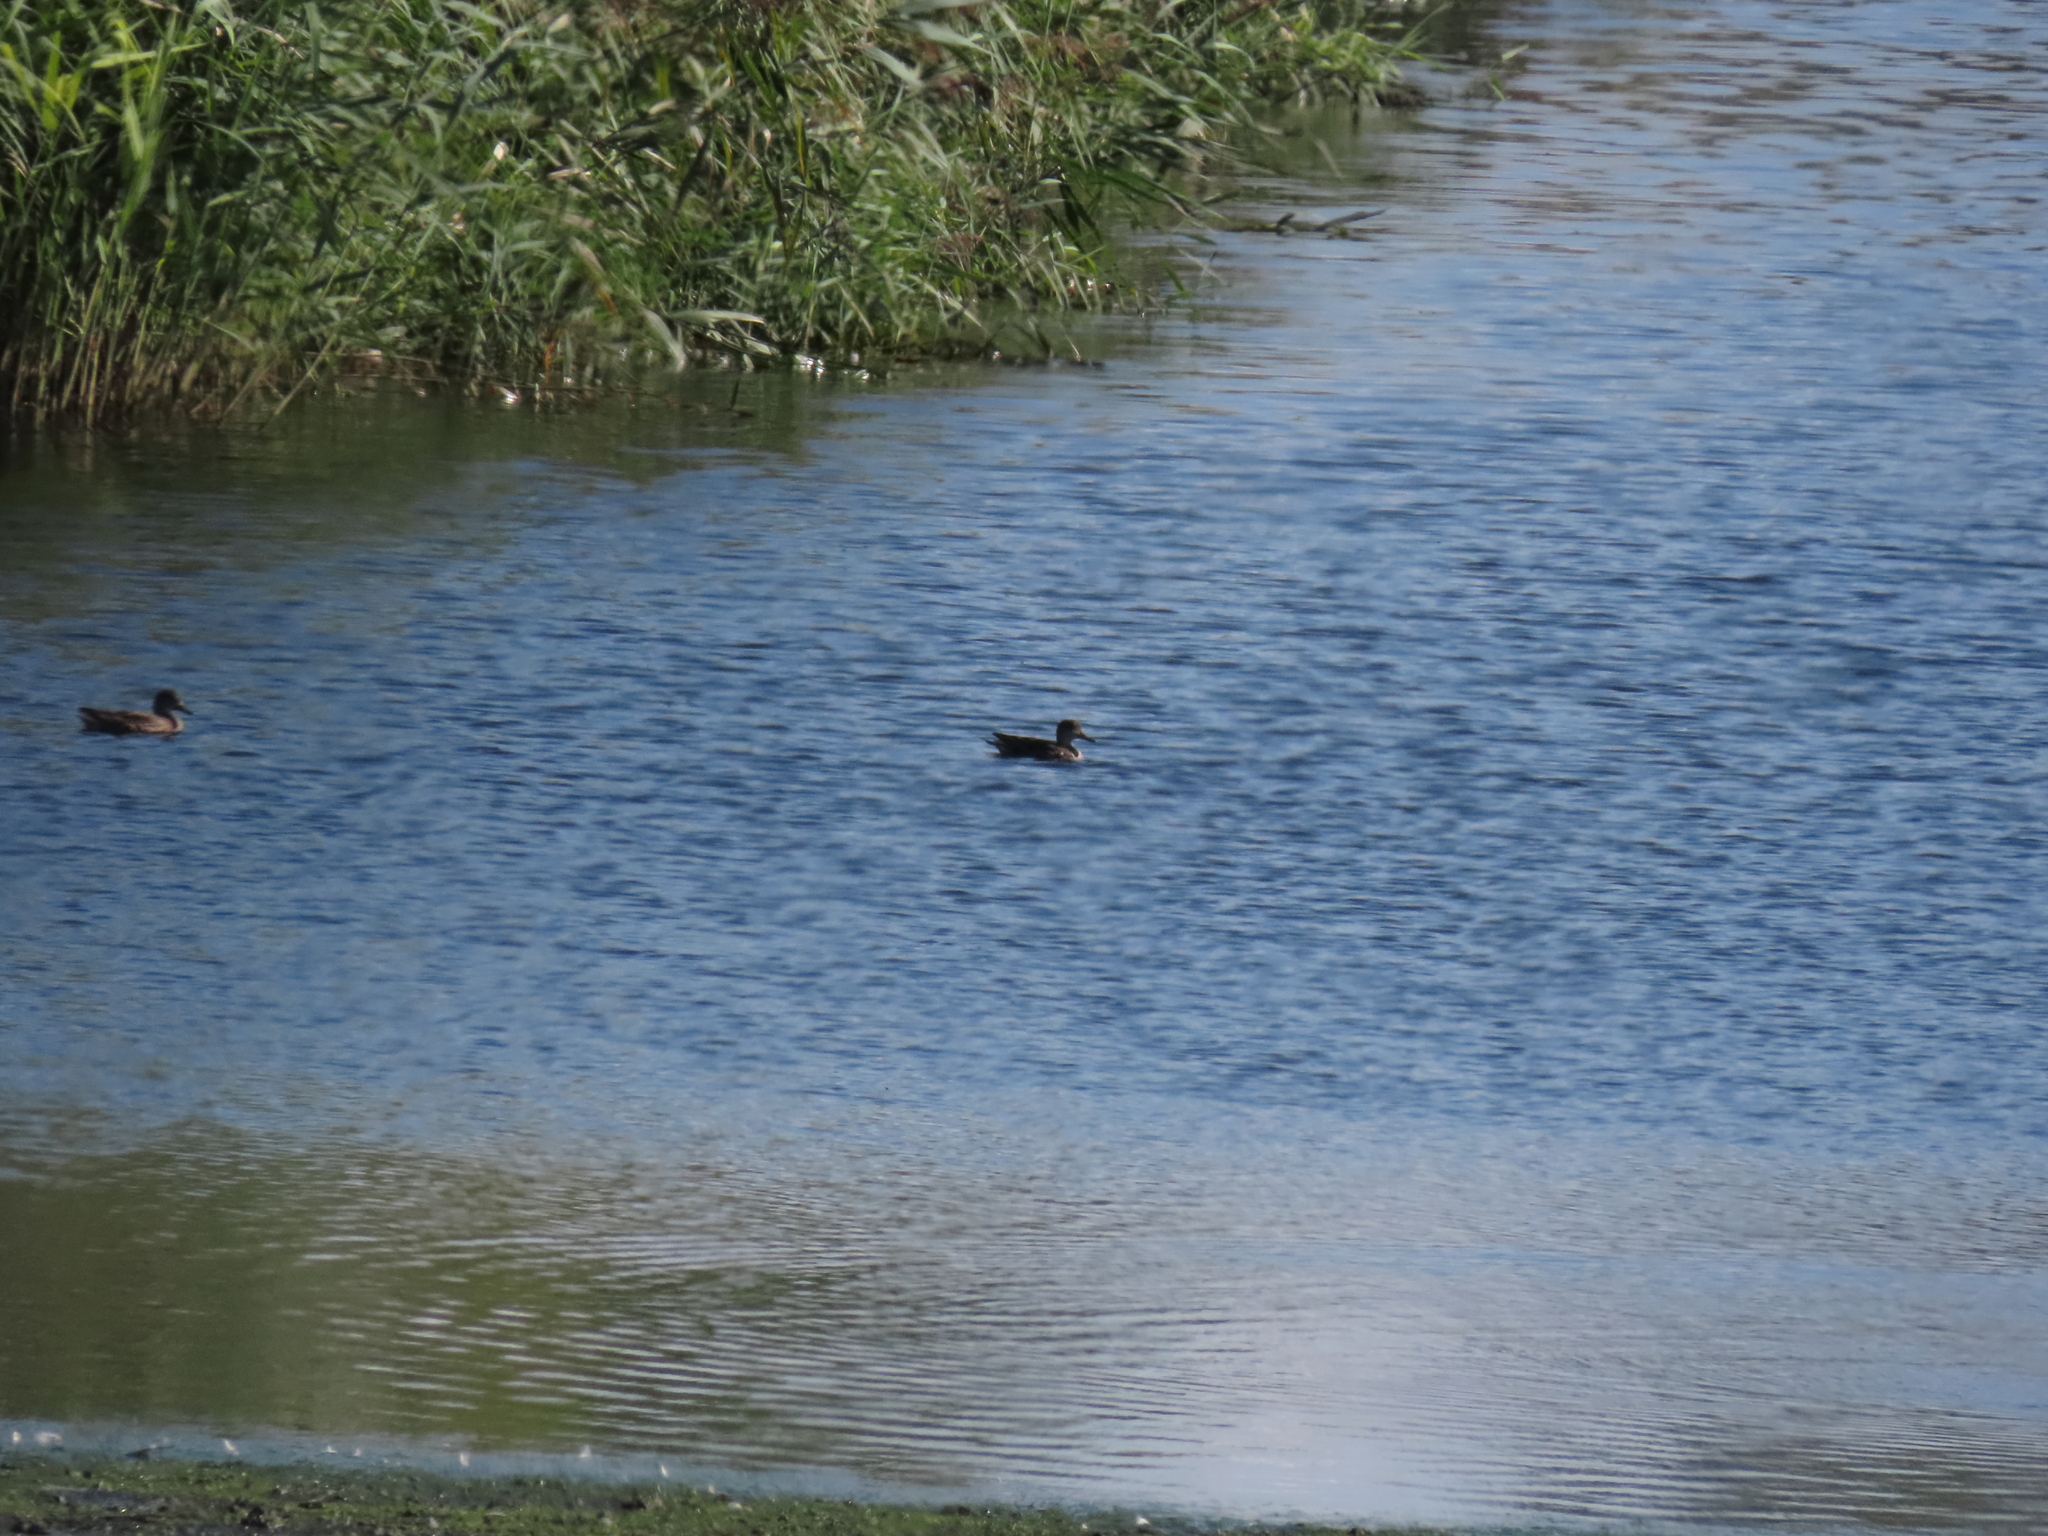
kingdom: Animalia
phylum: Chordata
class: Aves
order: Anseriformes
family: Anatidae
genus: Anas
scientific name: Anas crecca
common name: Eurasian teal
